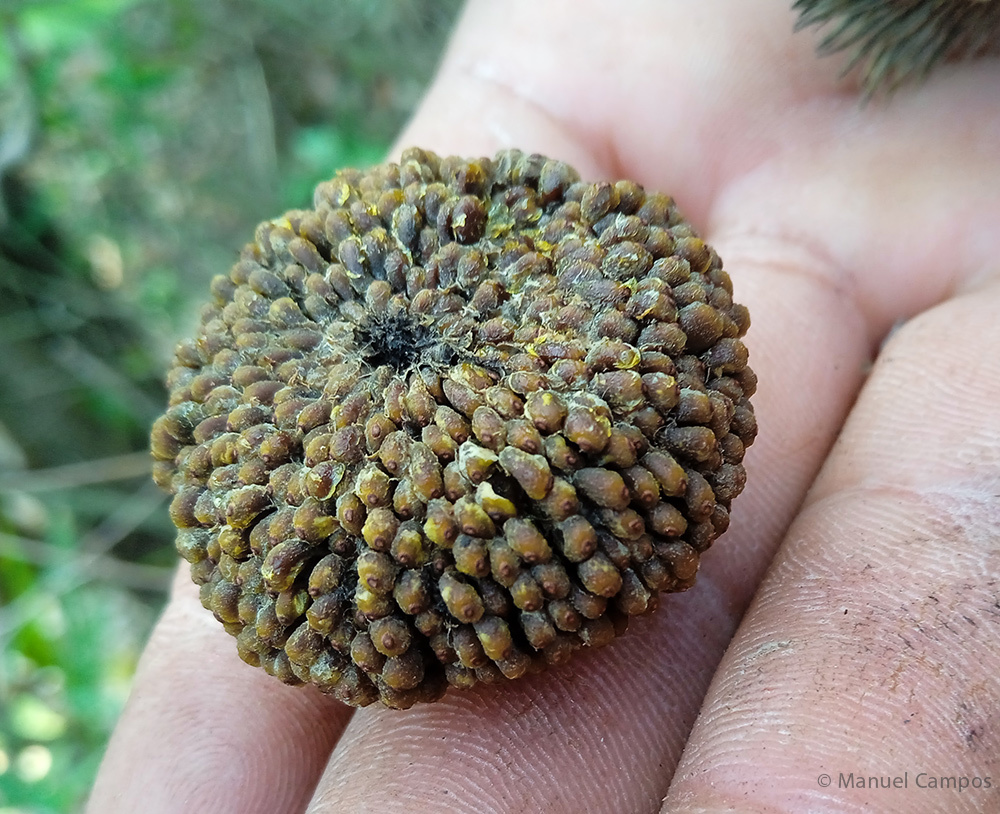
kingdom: Plantae
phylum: Tracheophyta
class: Magnoliopsida
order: Malvales
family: Malvaceae
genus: Apeiba
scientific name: Apeiba tibourbou
